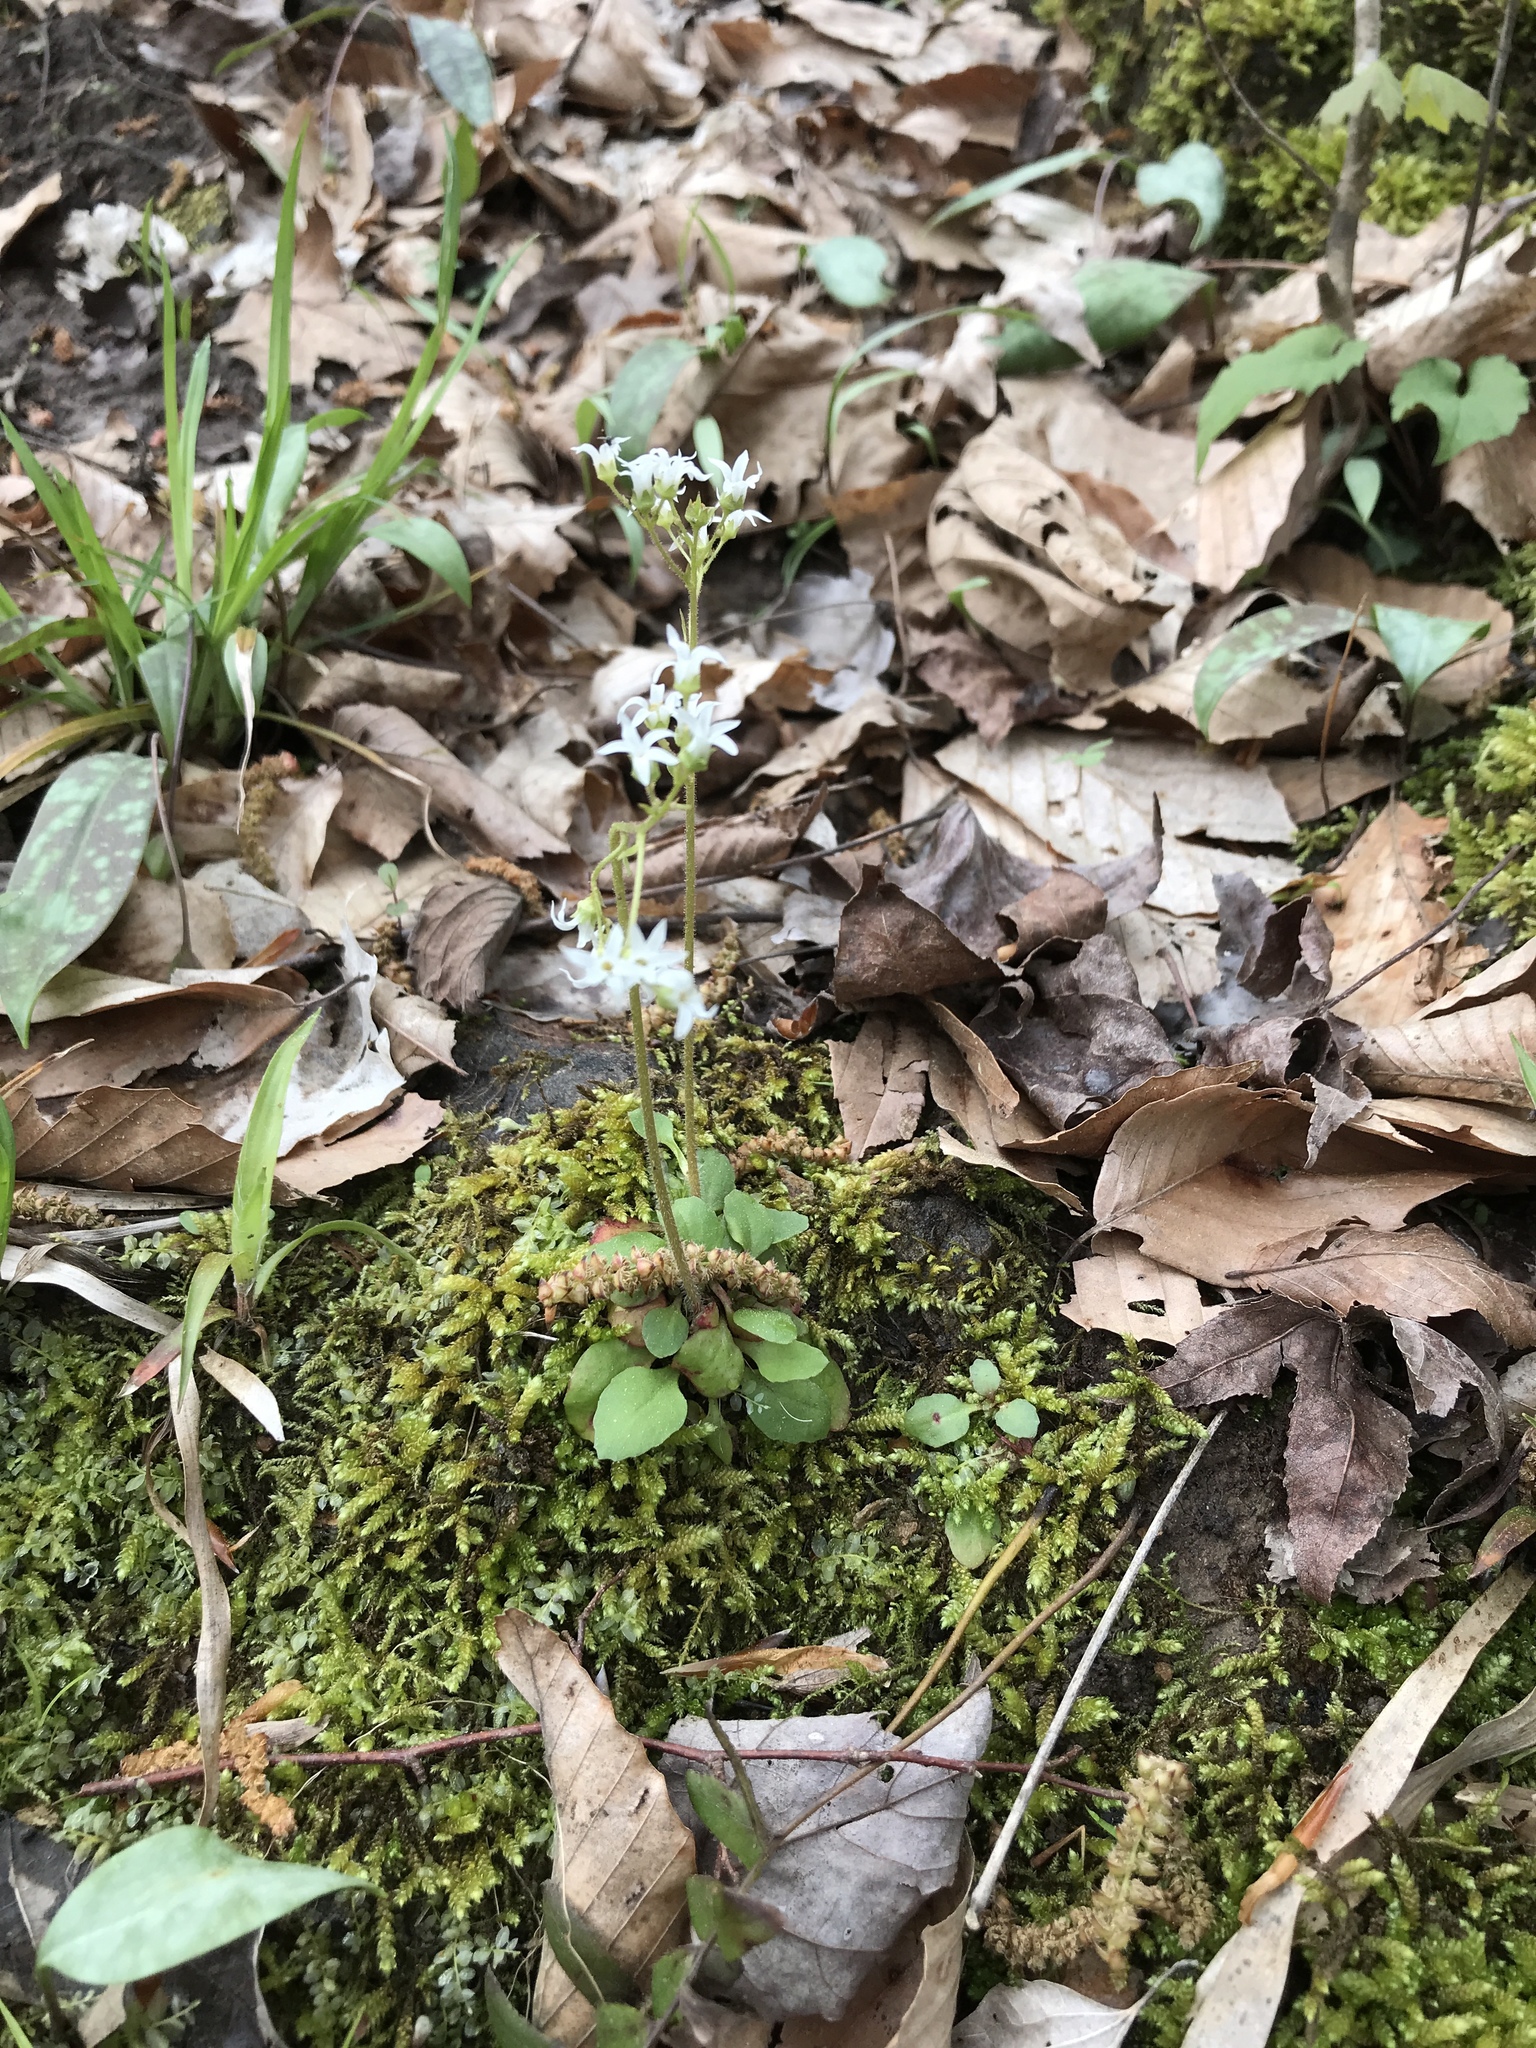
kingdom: Plantae
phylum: Tracheophyta
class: Magnoliopsida
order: Saxifragales
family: Saxifragaceae
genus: Micranthes
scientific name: Micranthes virginiensis
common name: Early saxifrage
